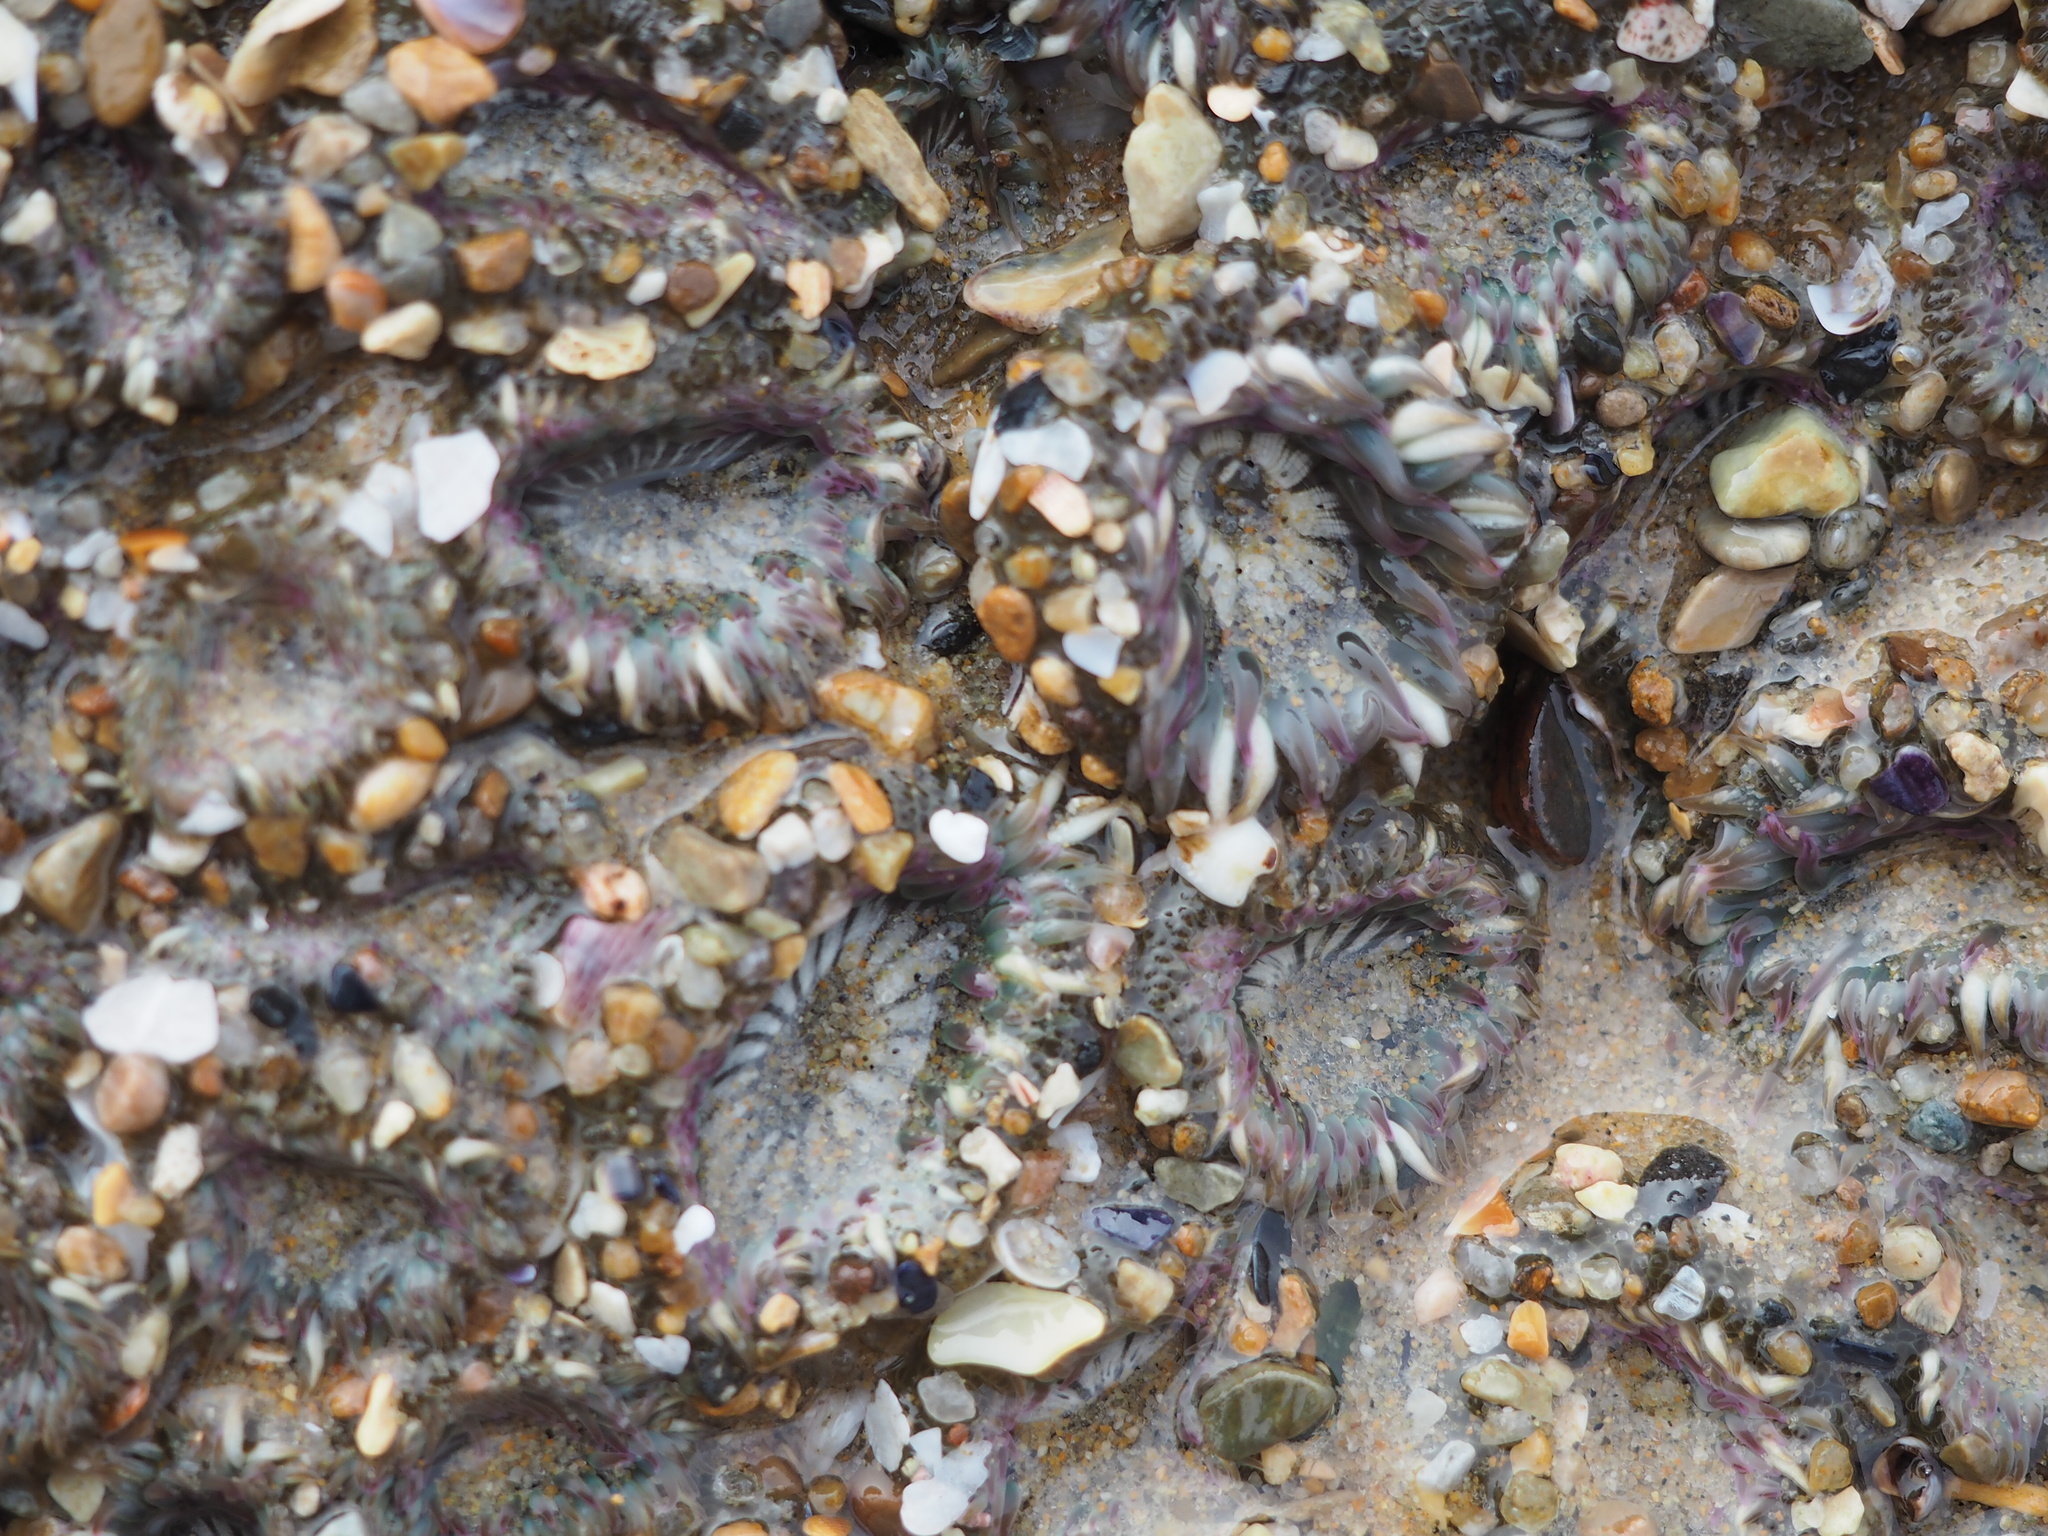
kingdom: Animalia
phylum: Cnidaria
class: Anthozoa
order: Actiniaria
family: Actiniidae
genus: Anthopleura
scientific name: Anthopleura elegantissima
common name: Clonal anemone
